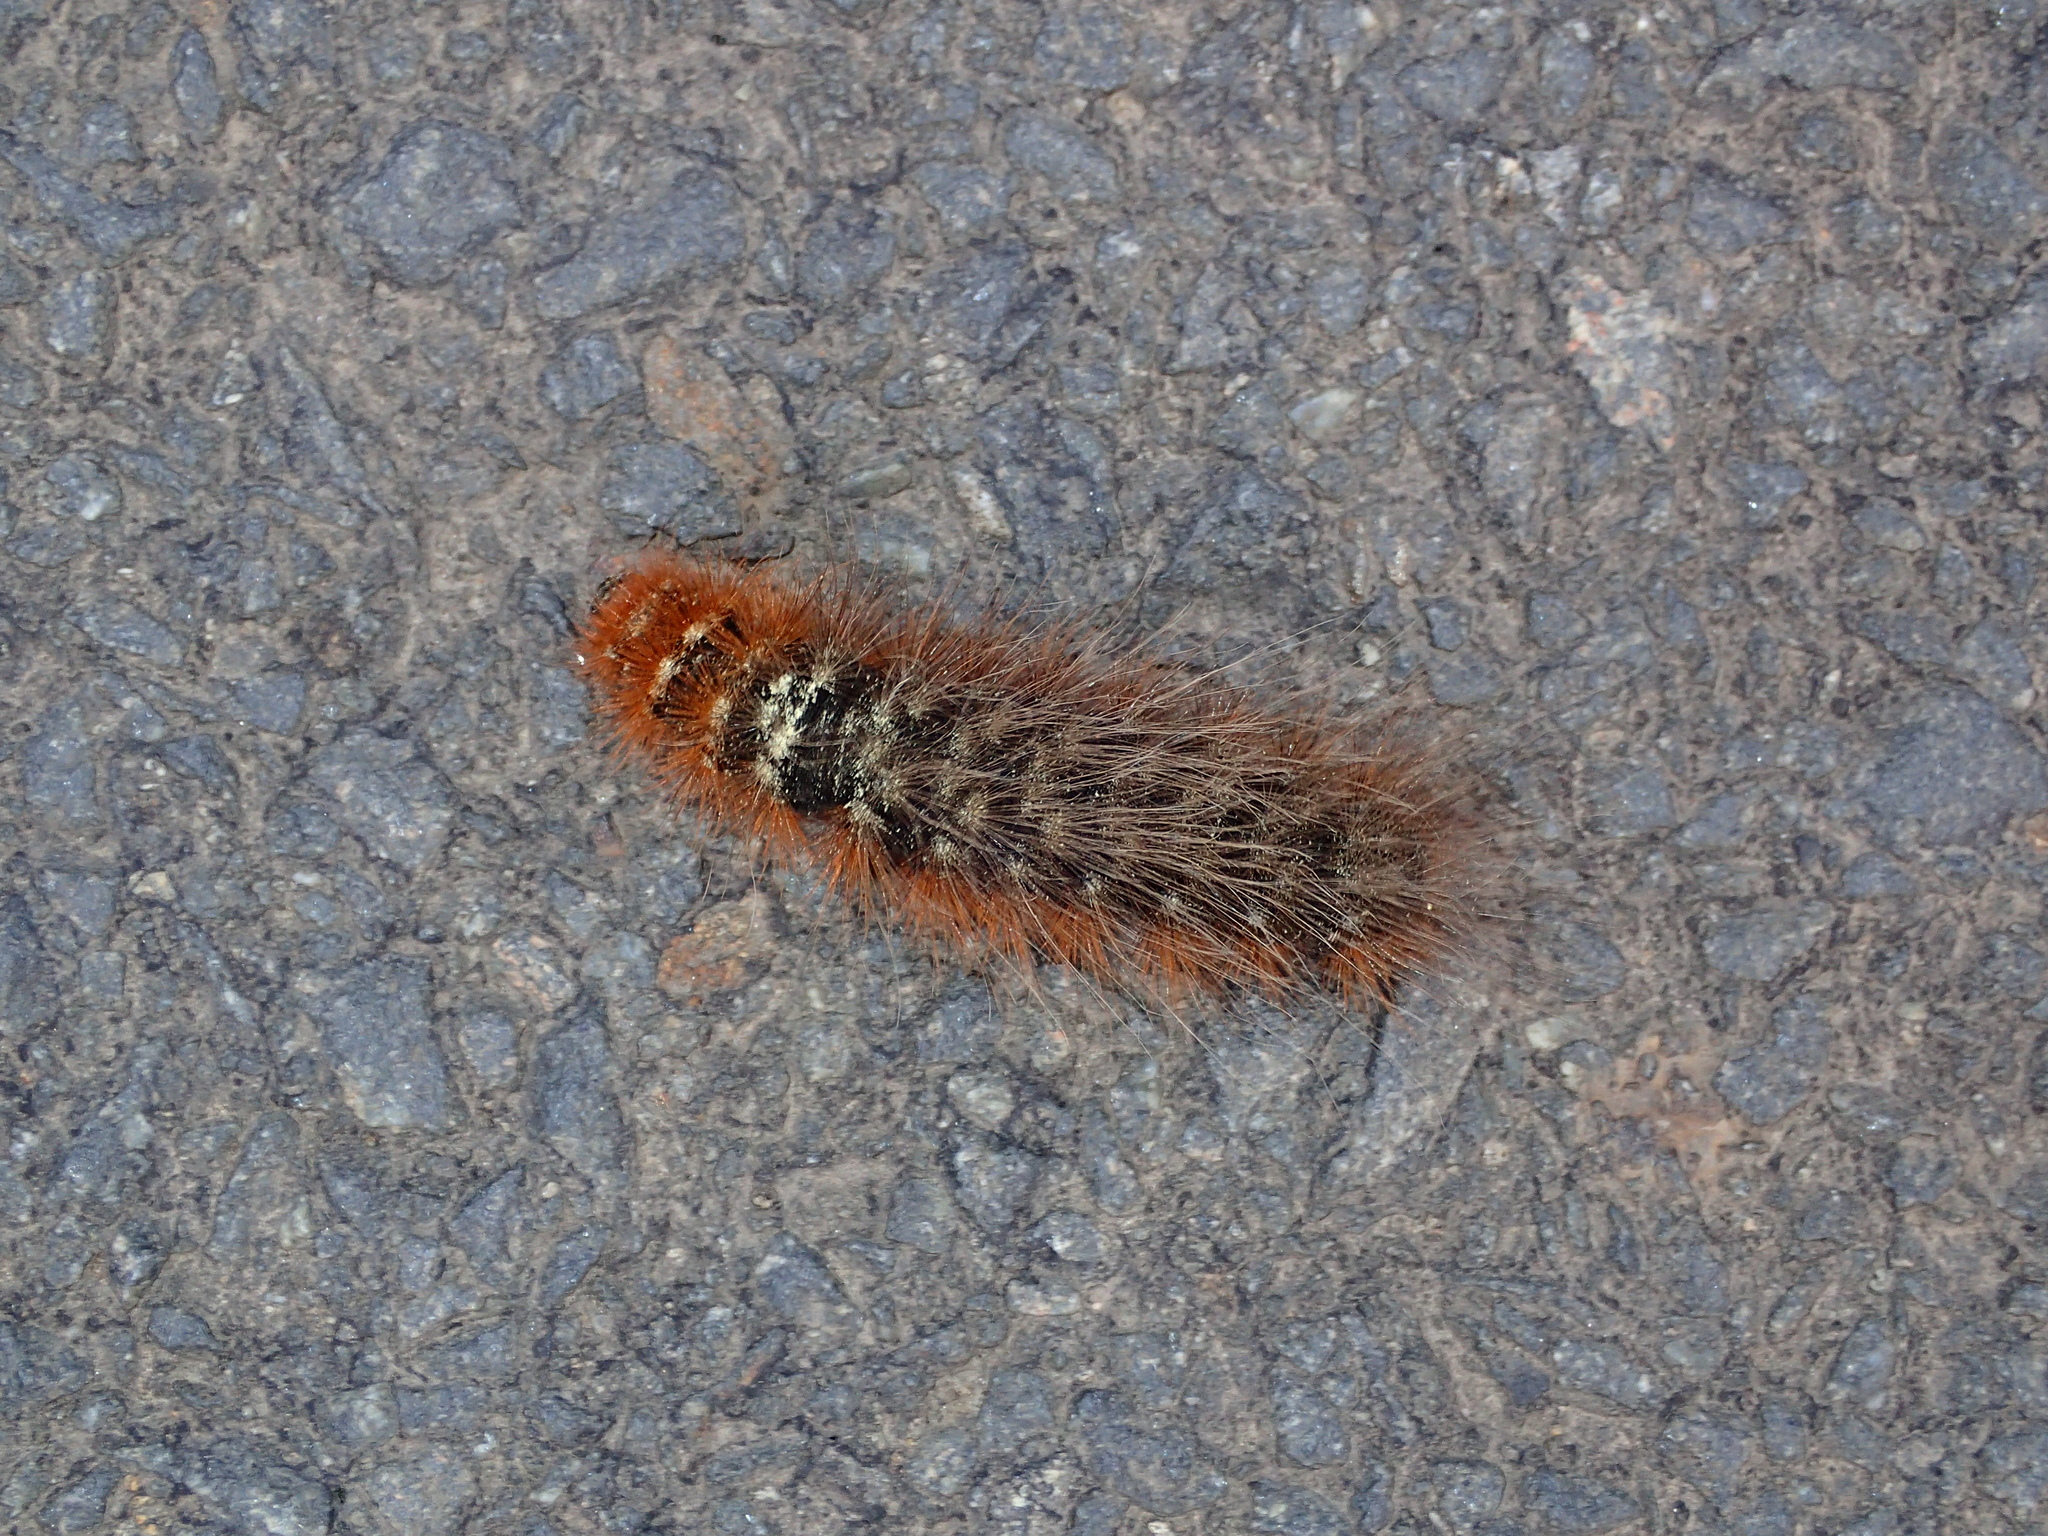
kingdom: Animalia
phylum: Arthropoda
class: Insecta
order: Lepidoptera
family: Erebidae
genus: Arctia
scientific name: Arctia caja
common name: Garden tiger
